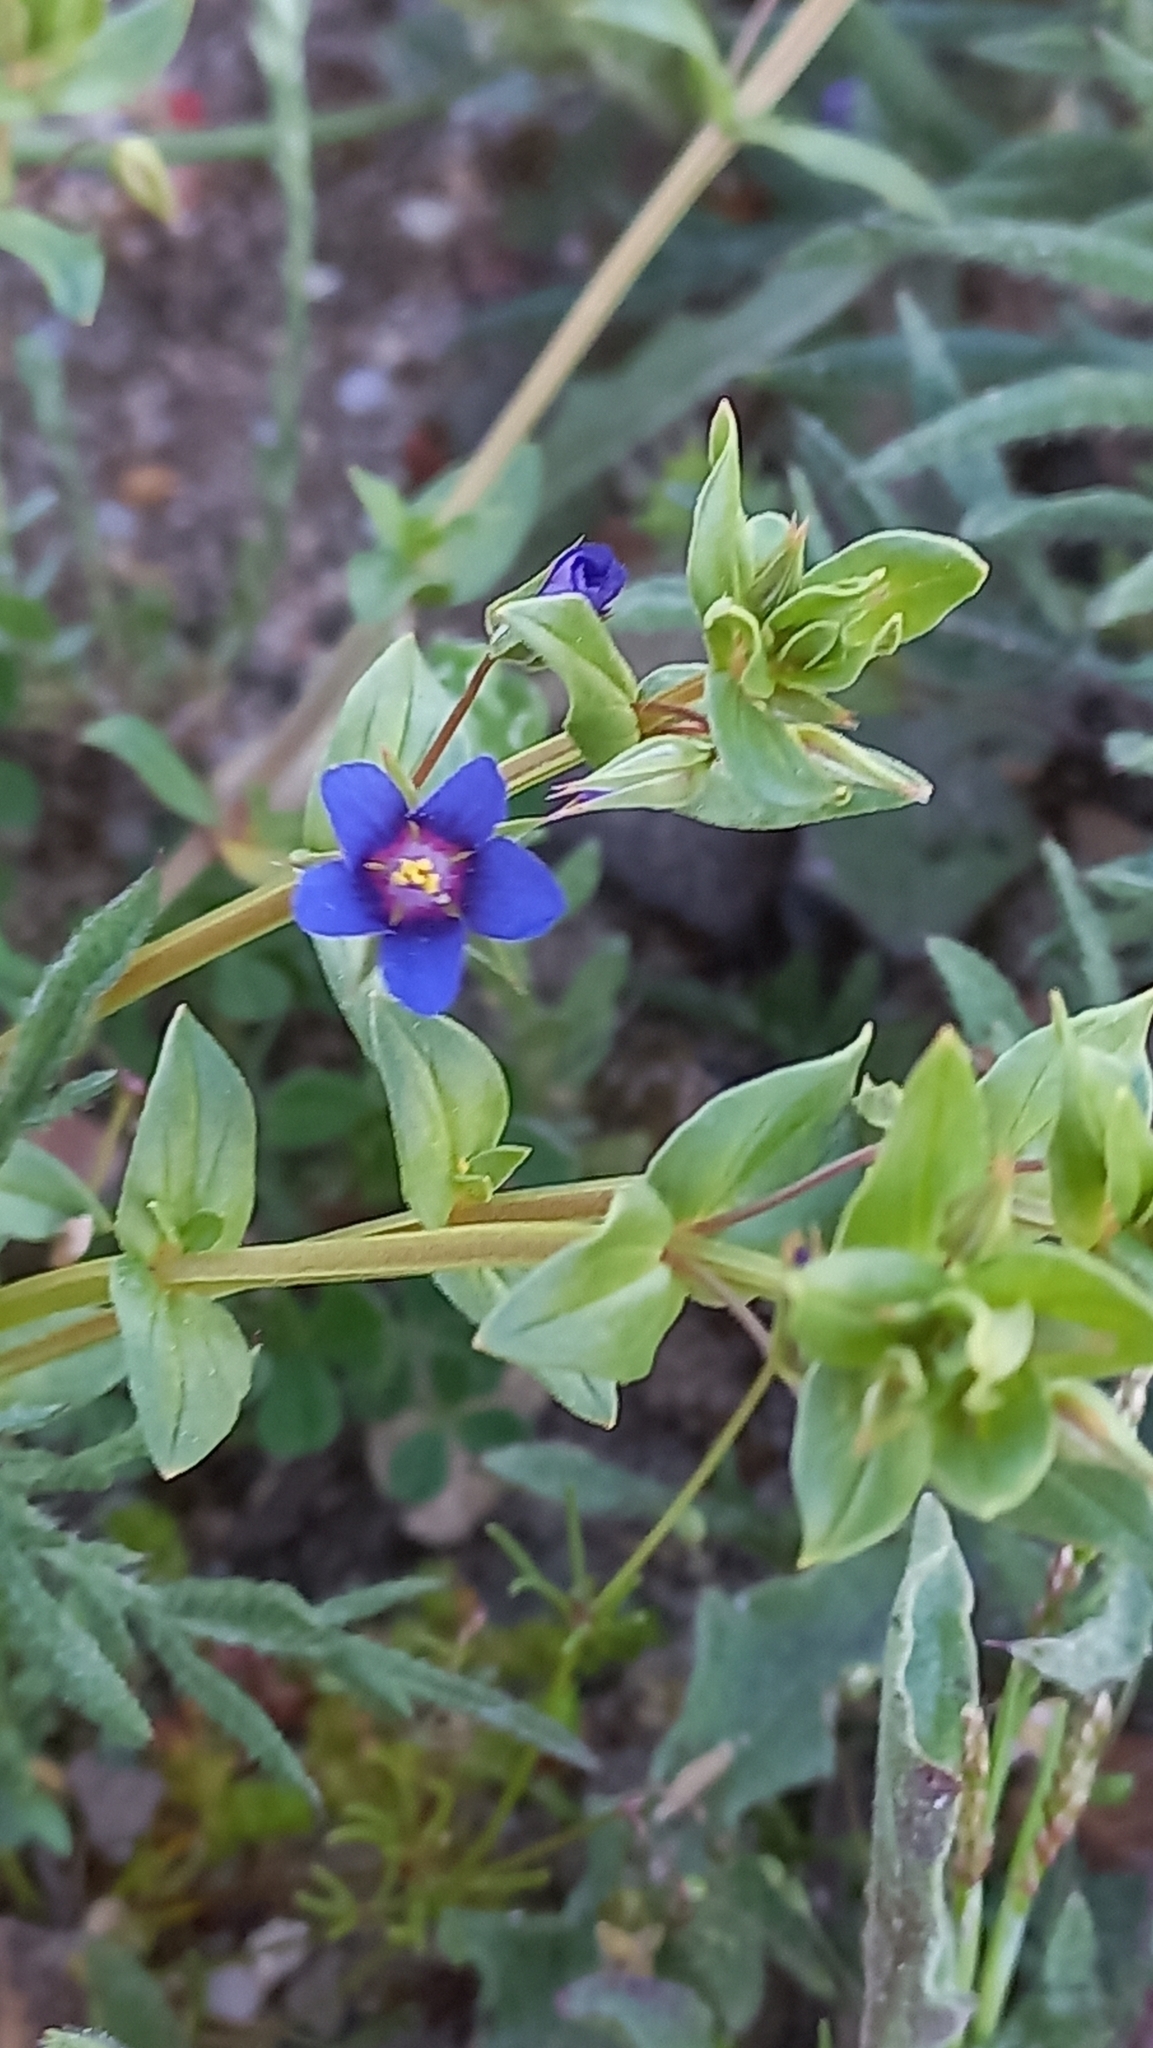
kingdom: Plantae
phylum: Tracheophyta
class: Magnoliopsida
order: Ericales
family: Primulaceae
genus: Lysimachia
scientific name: Lysimachia foemina
